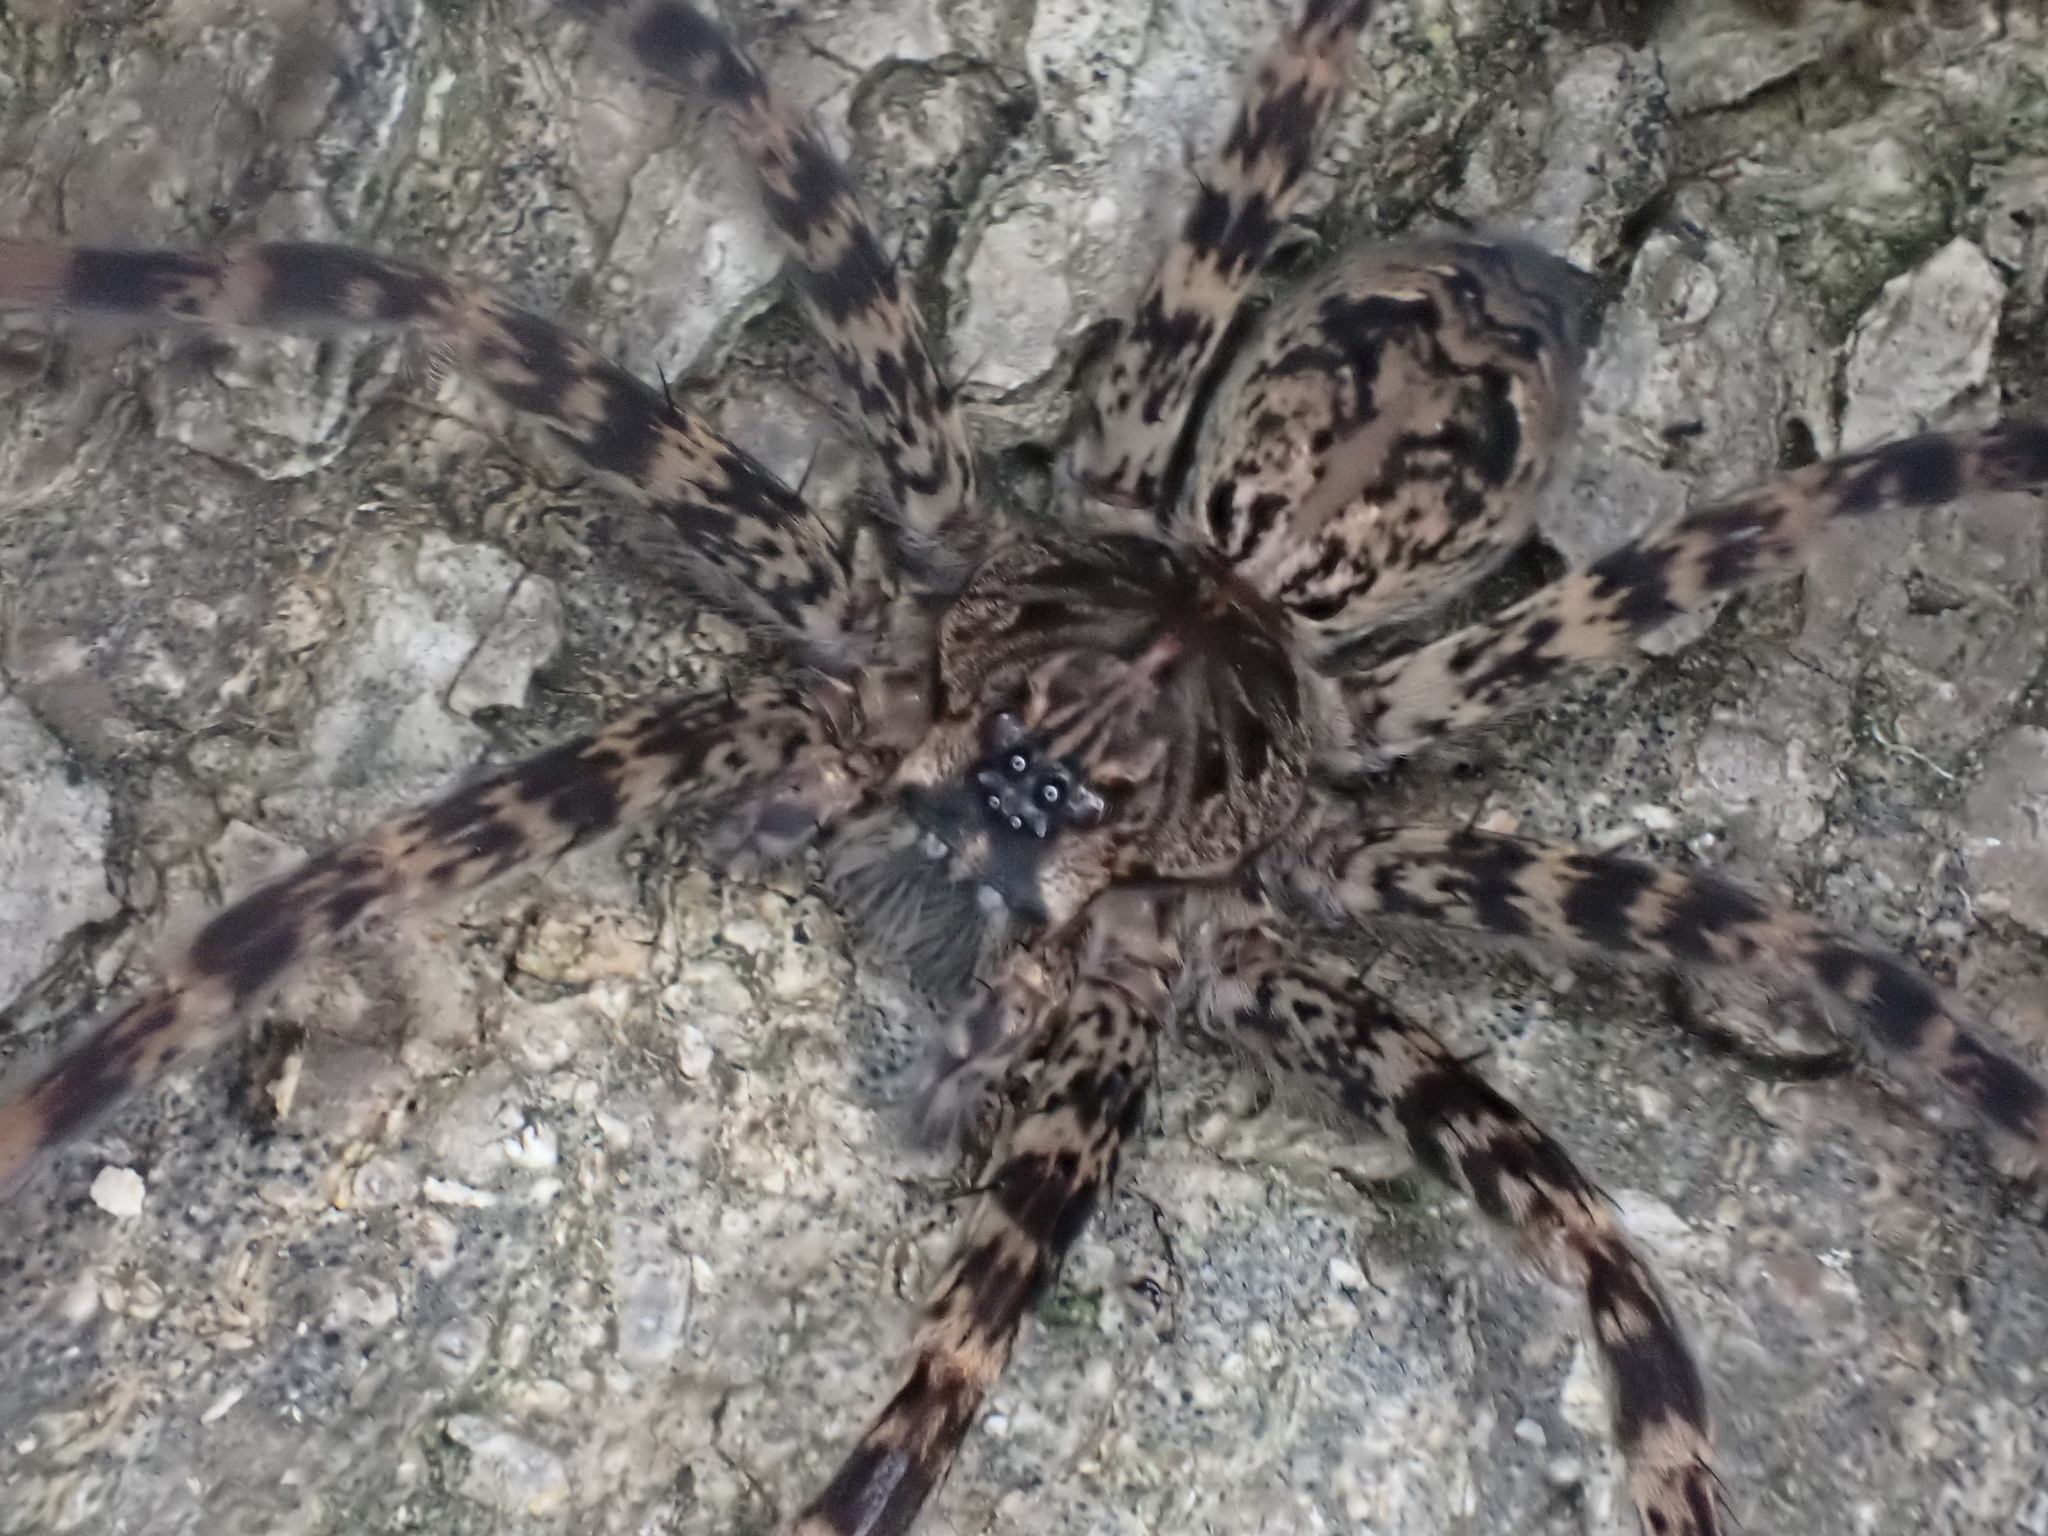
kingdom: Animalia
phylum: Arthropoda
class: Arachnida
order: Araneae
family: Pisauridae
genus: Dolomedes
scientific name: Dolomedes tenebrosus
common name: Dark fishing spider
